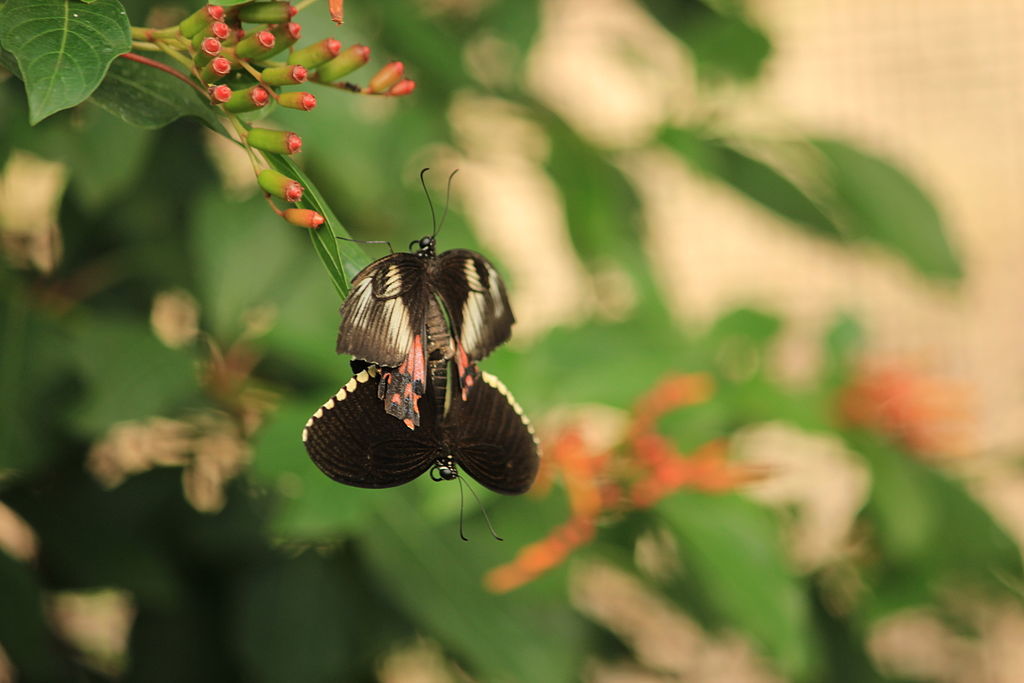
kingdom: Animalia
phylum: Arthropoda
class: Insecta
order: Lepidoptera
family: Papilionidae
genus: Papilio
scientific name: Papilio polytes
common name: Common mormon
